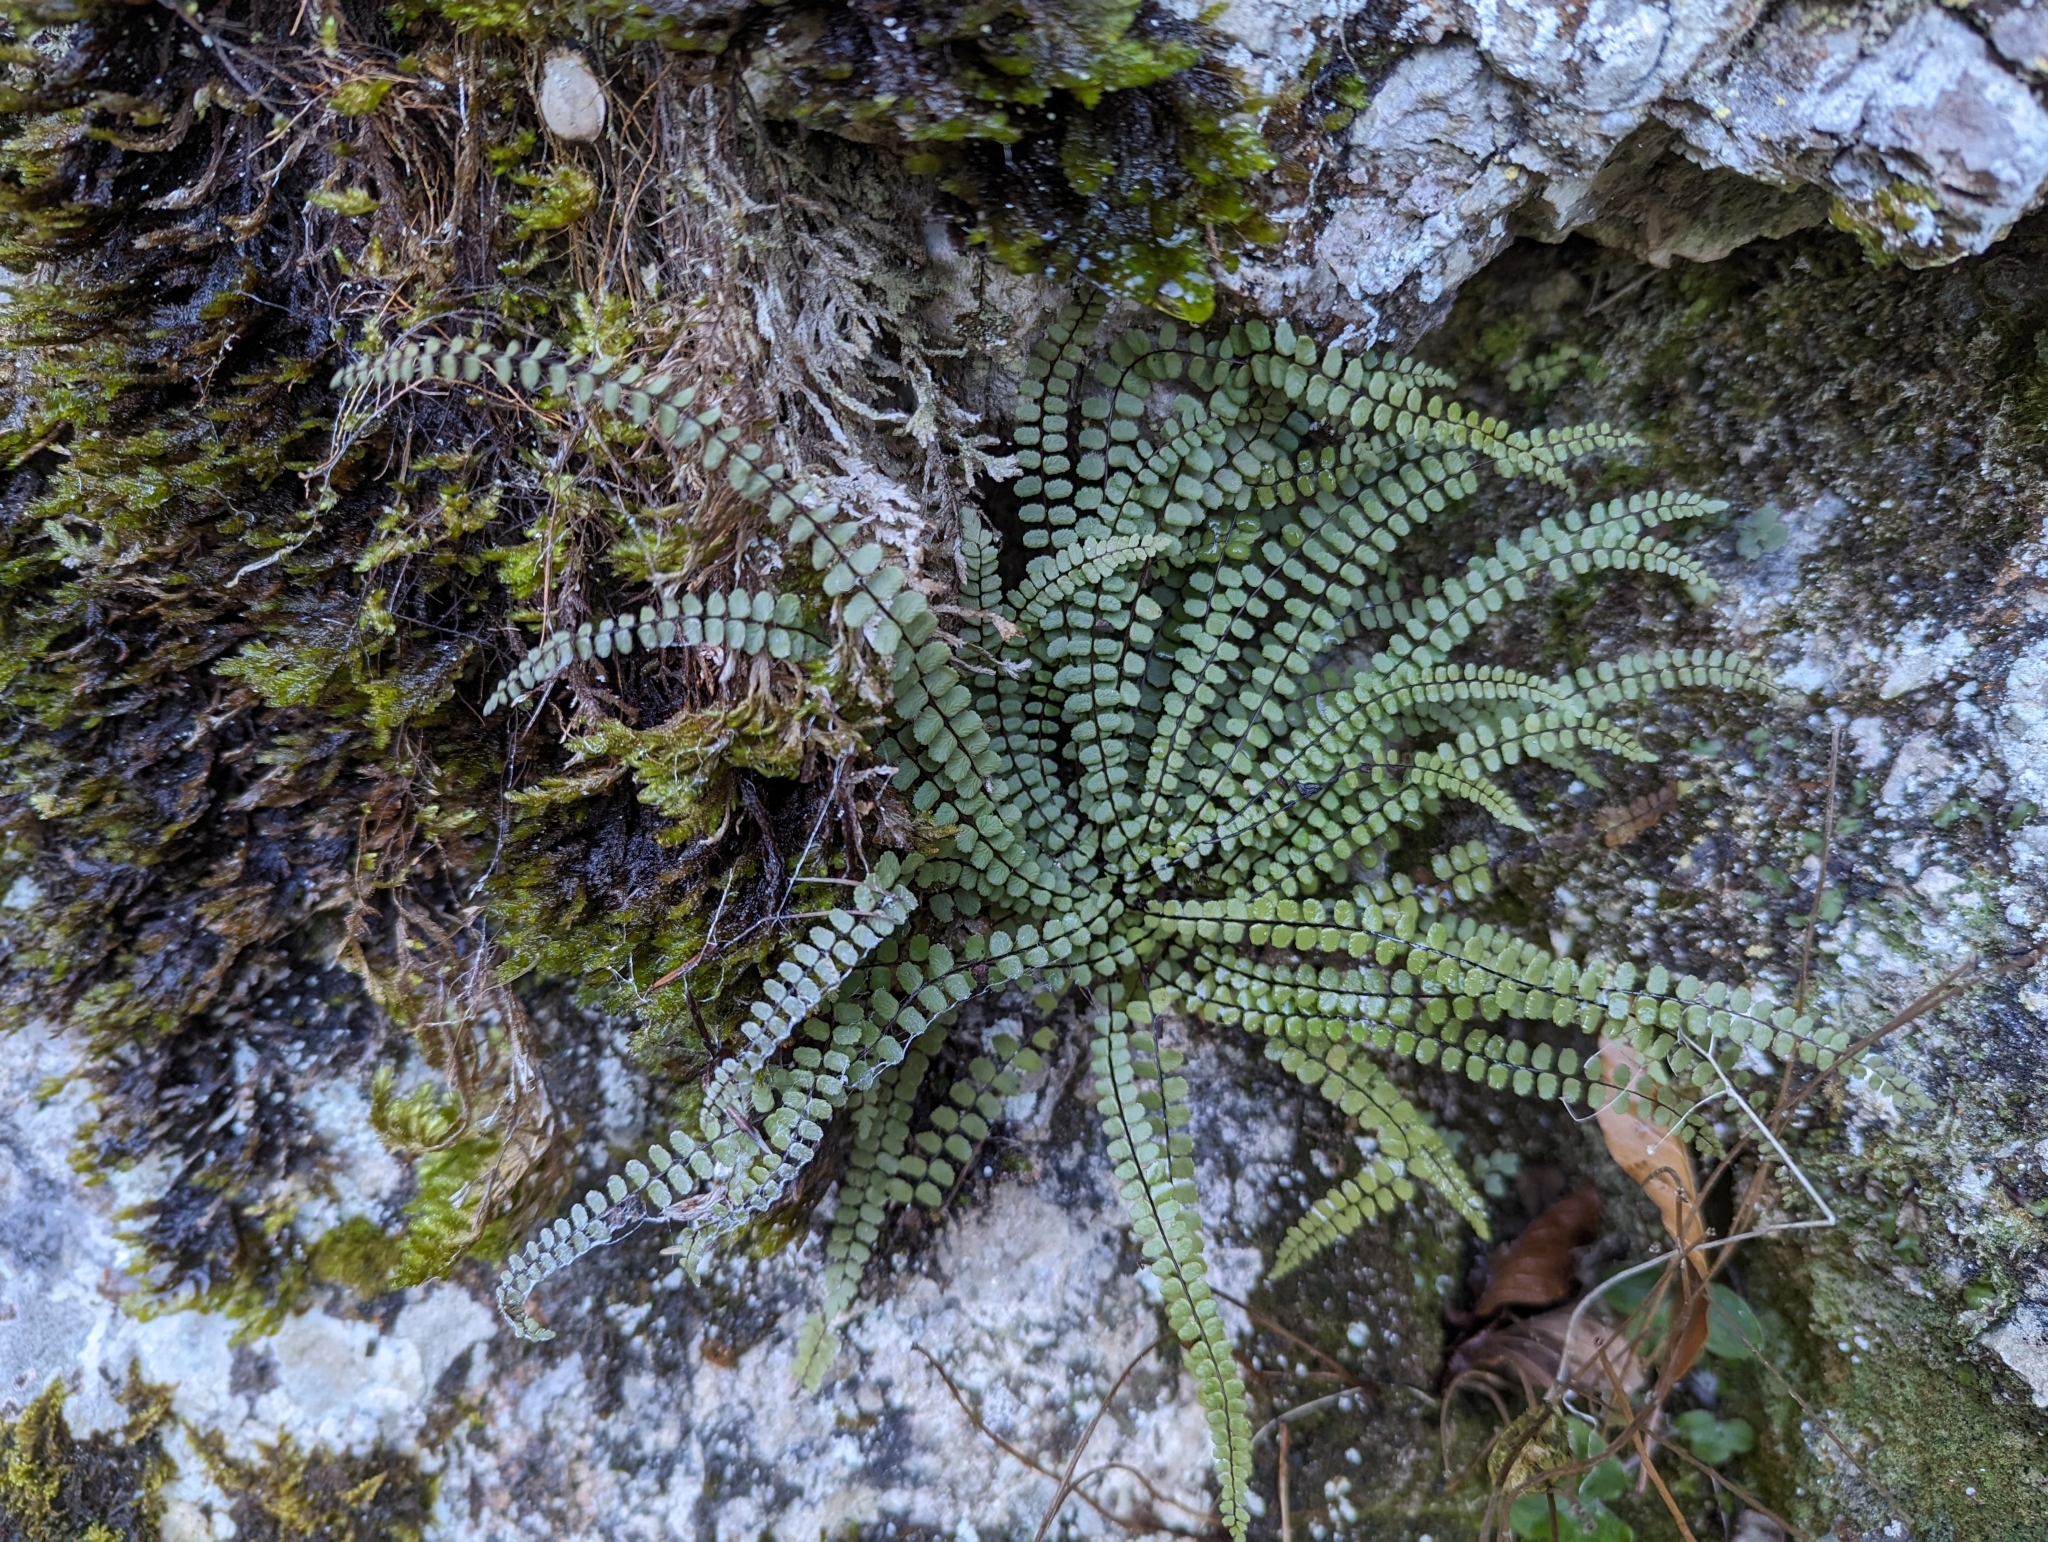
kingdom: Plantae
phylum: Tracheophyta
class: Polypodiopsida
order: Polypodiales
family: Aspleniaceae
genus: Asplenium
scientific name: Asplenium trichomanes
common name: Maidenhair spleenwort
